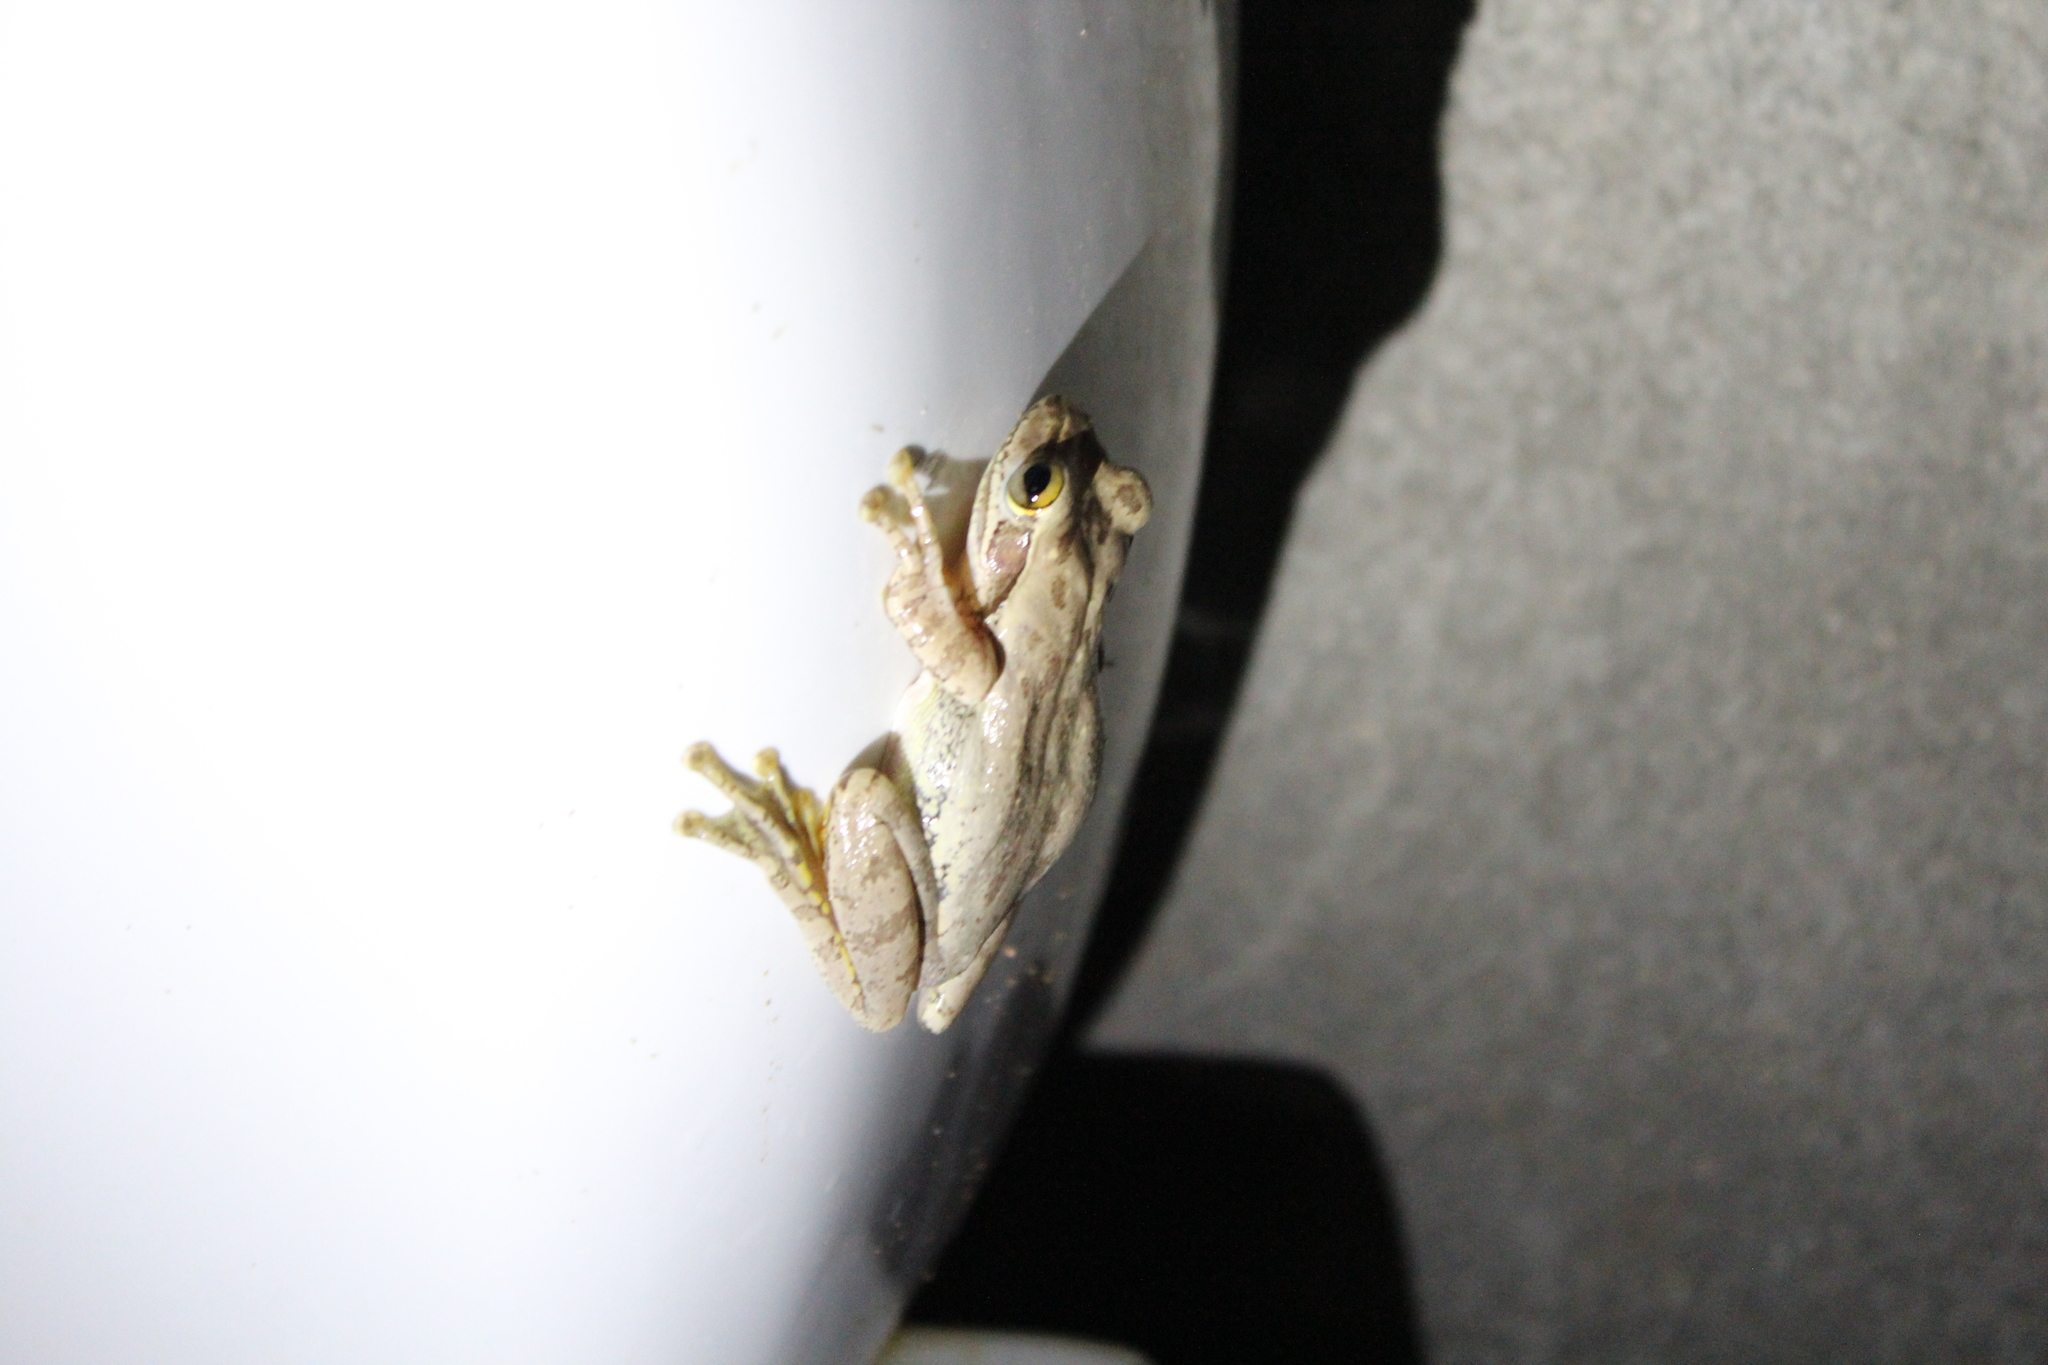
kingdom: Animalia
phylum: Chordata
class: Amphibia
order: Anura
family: Mantellidae
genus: Boophis
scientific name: Boophis doulioti
